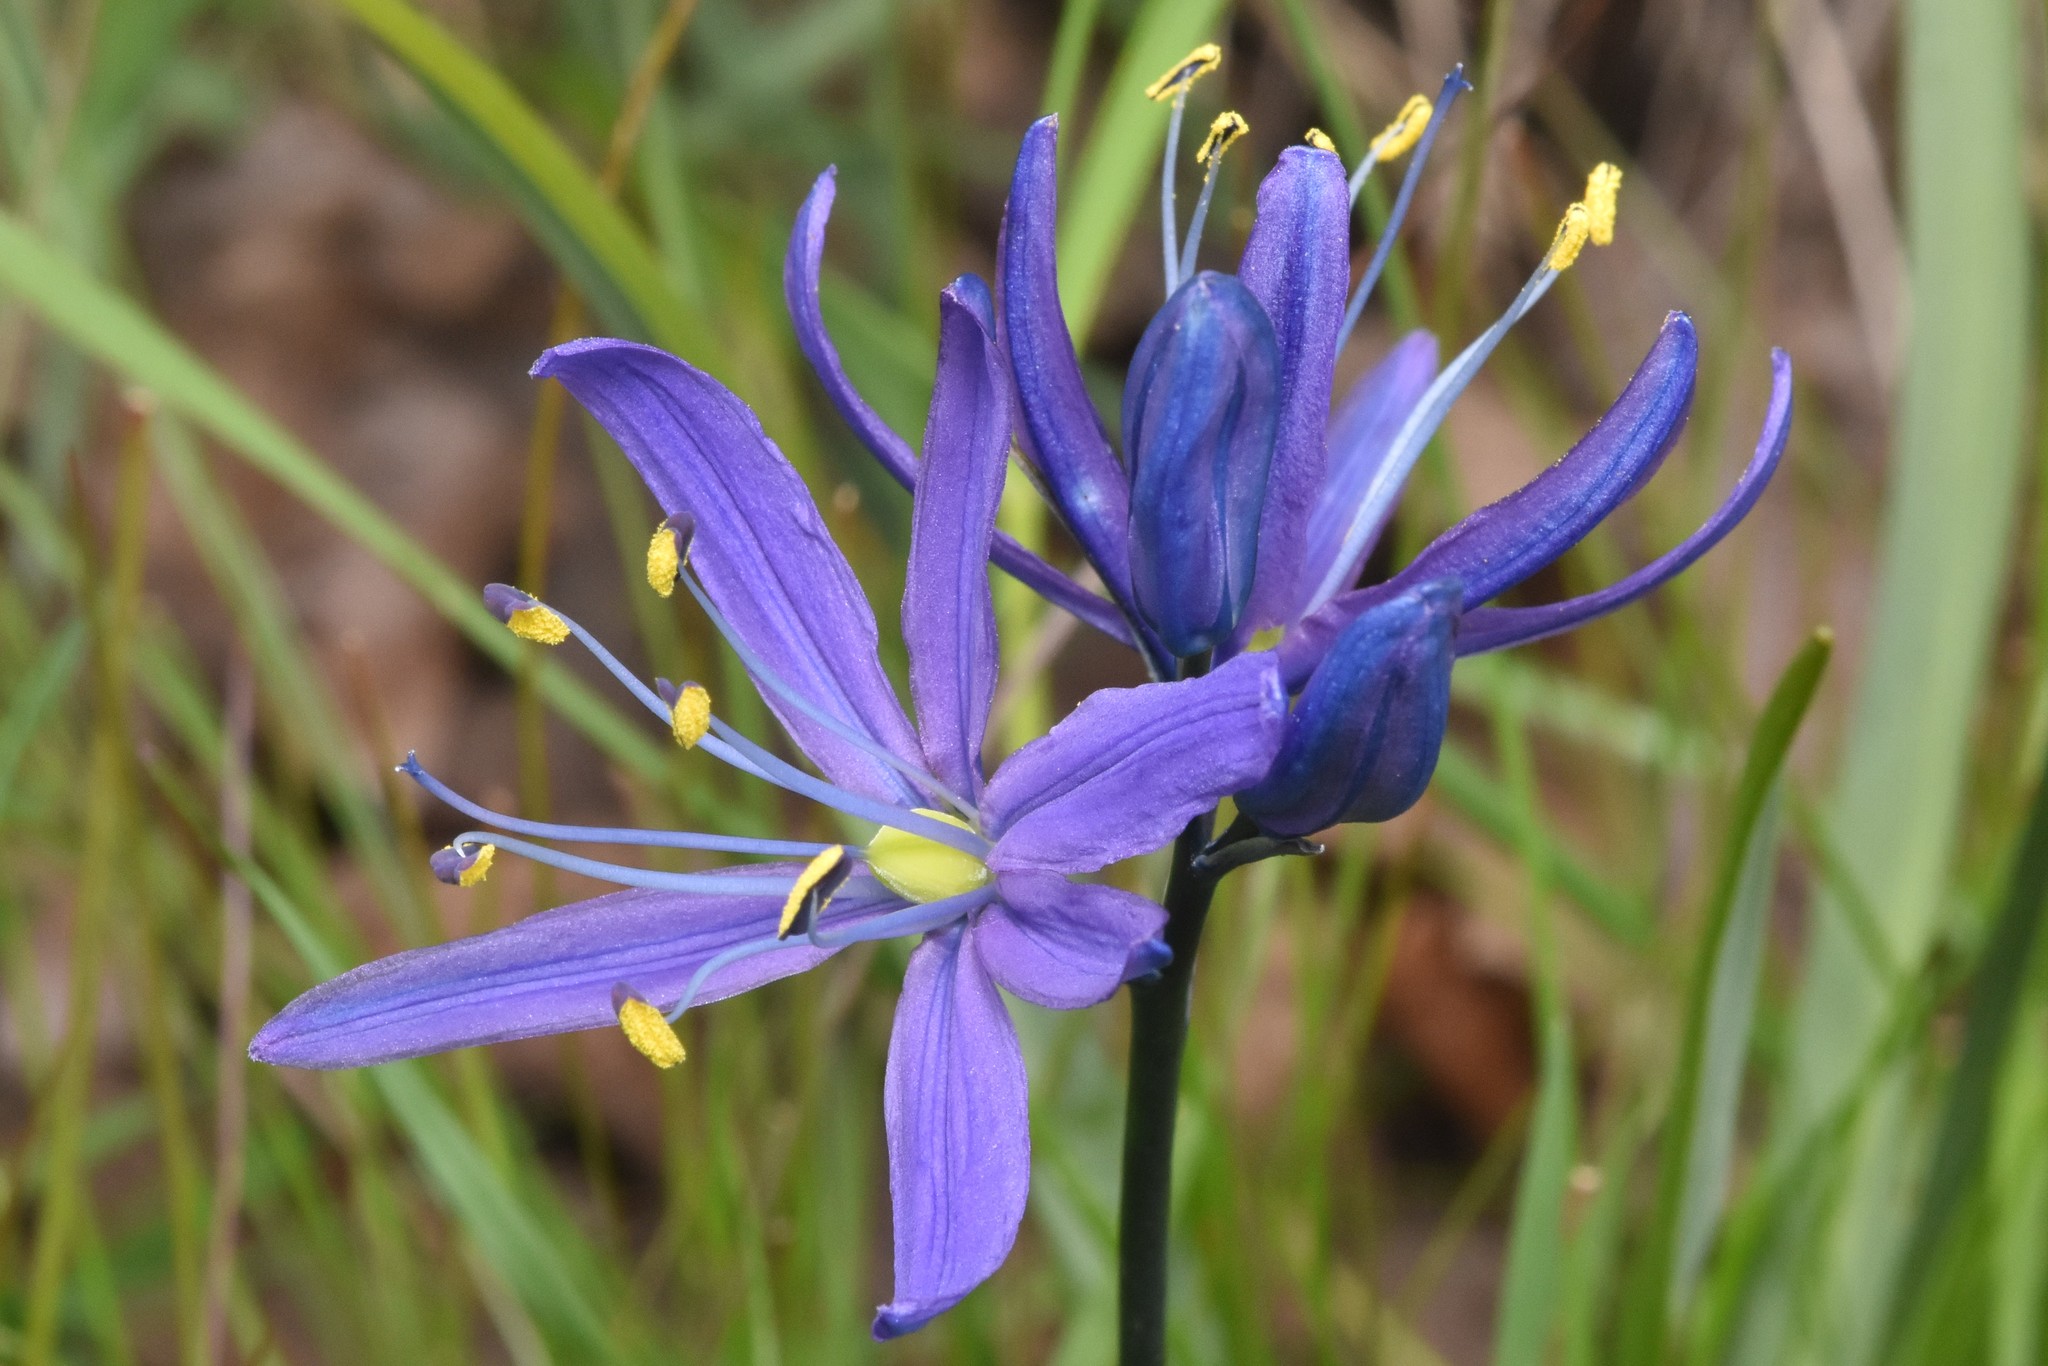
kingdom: Plantae
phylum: Tracheophyta
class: Liliopsida
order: Asparagales
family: Asparagaceae
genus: Camassia
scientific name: Camassia quamash
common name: Common camas
